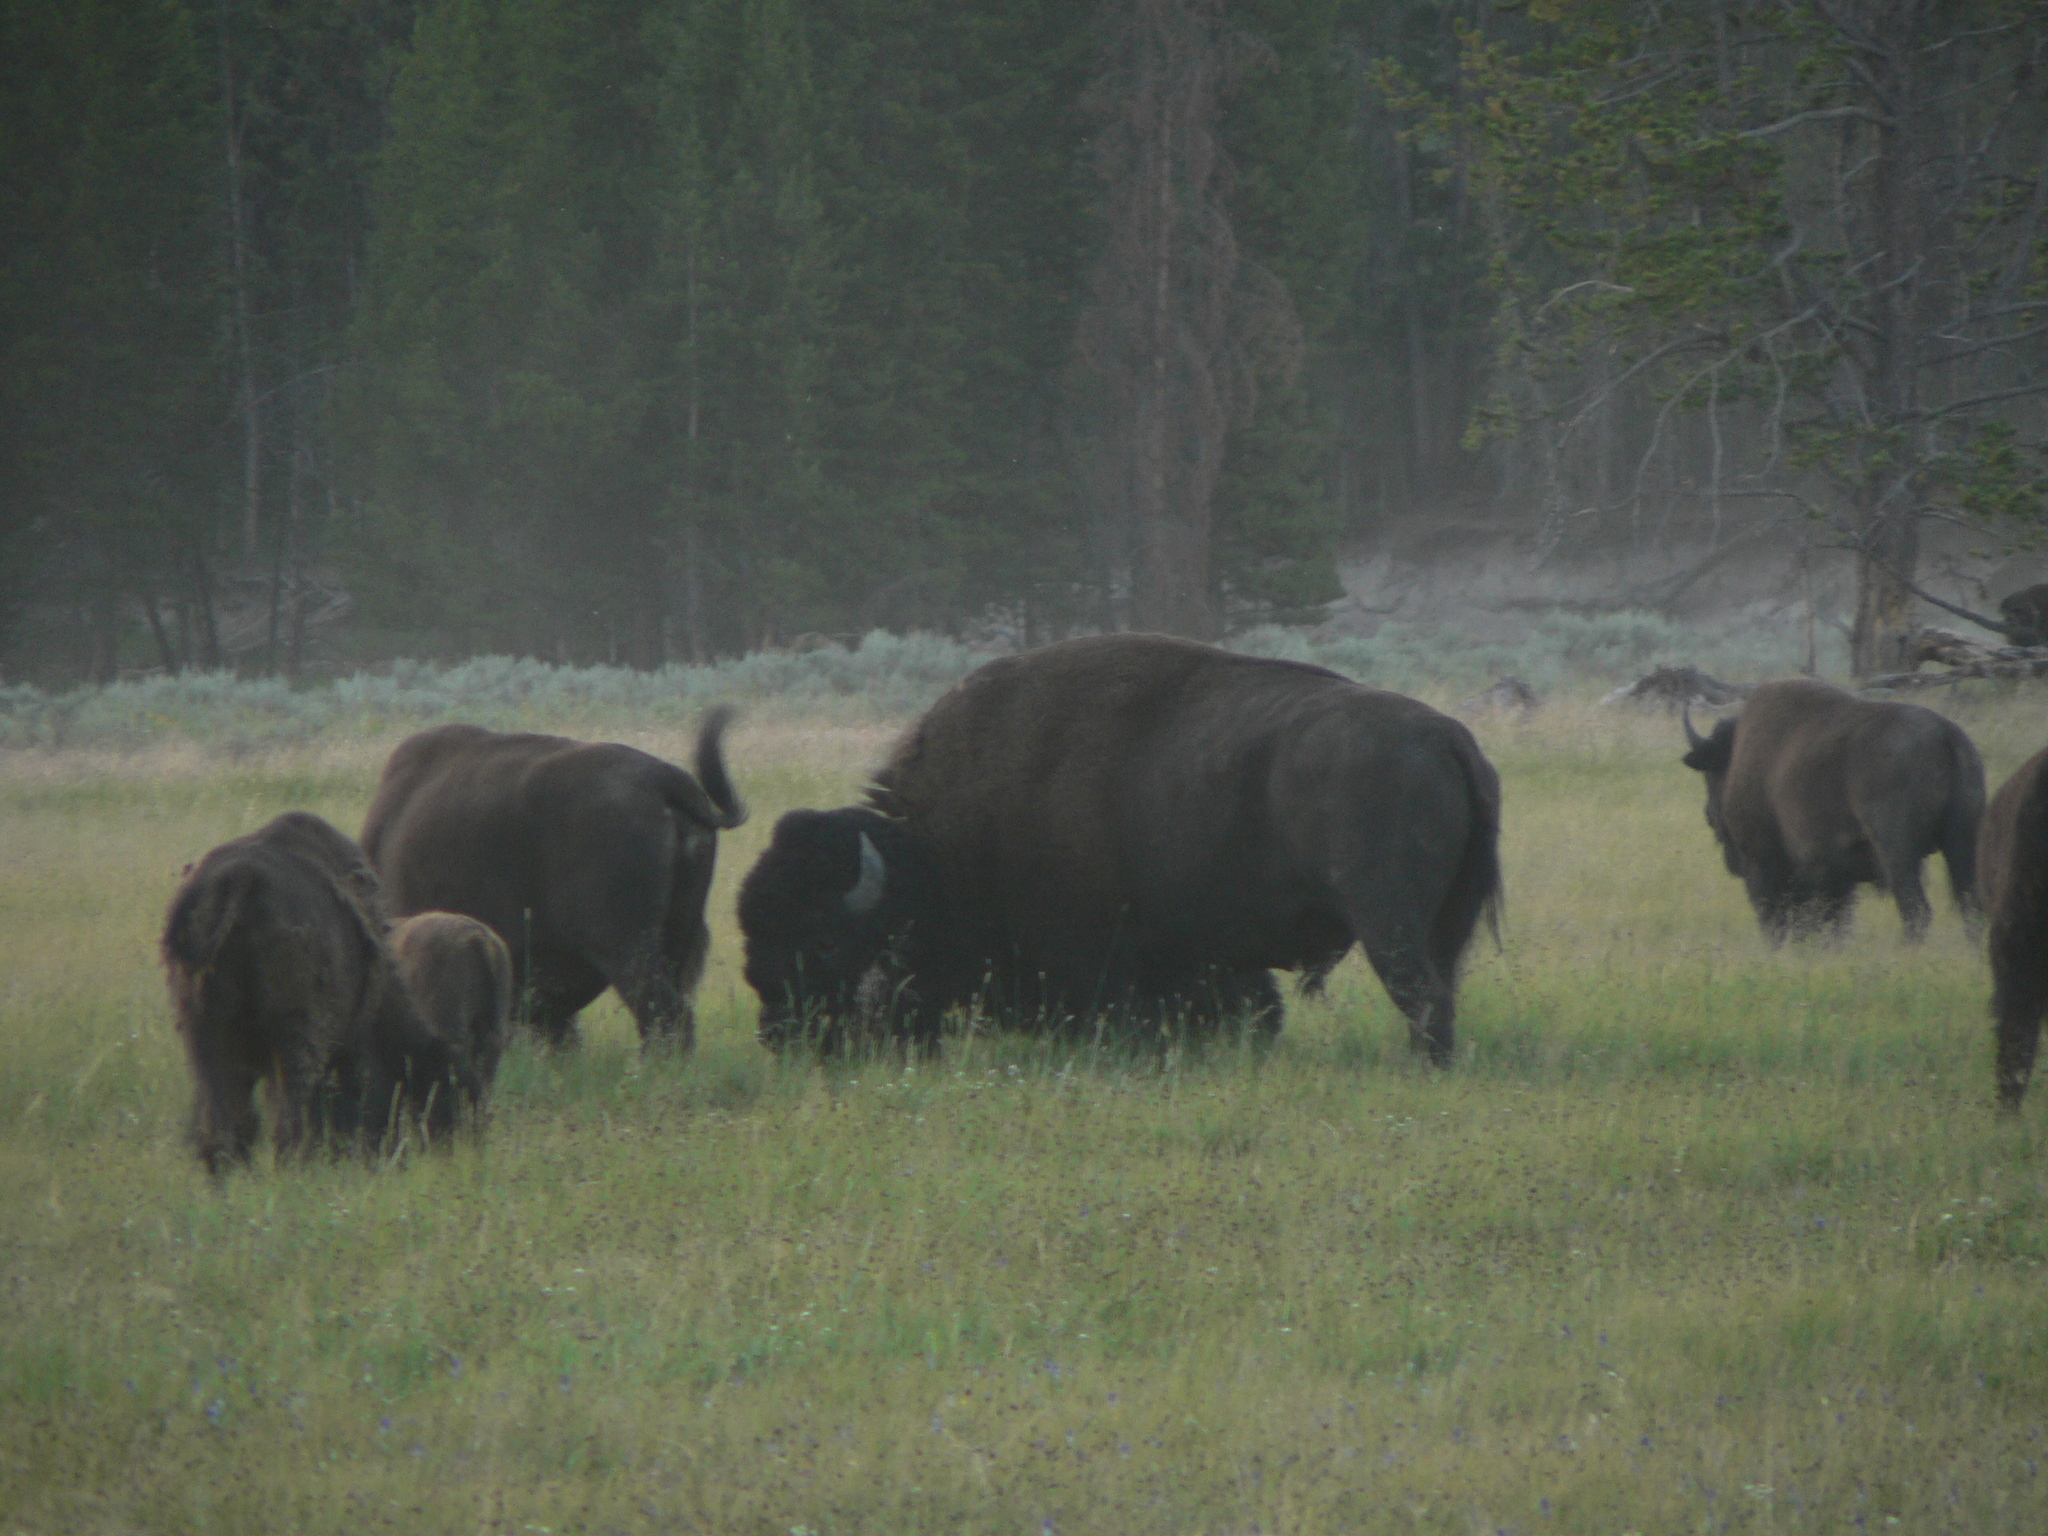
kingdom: Animalia
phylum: Chordata
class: Mammalia
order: Artiodactyla
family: Bovidae
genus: Bison
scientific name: Bison bison
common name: American bison
